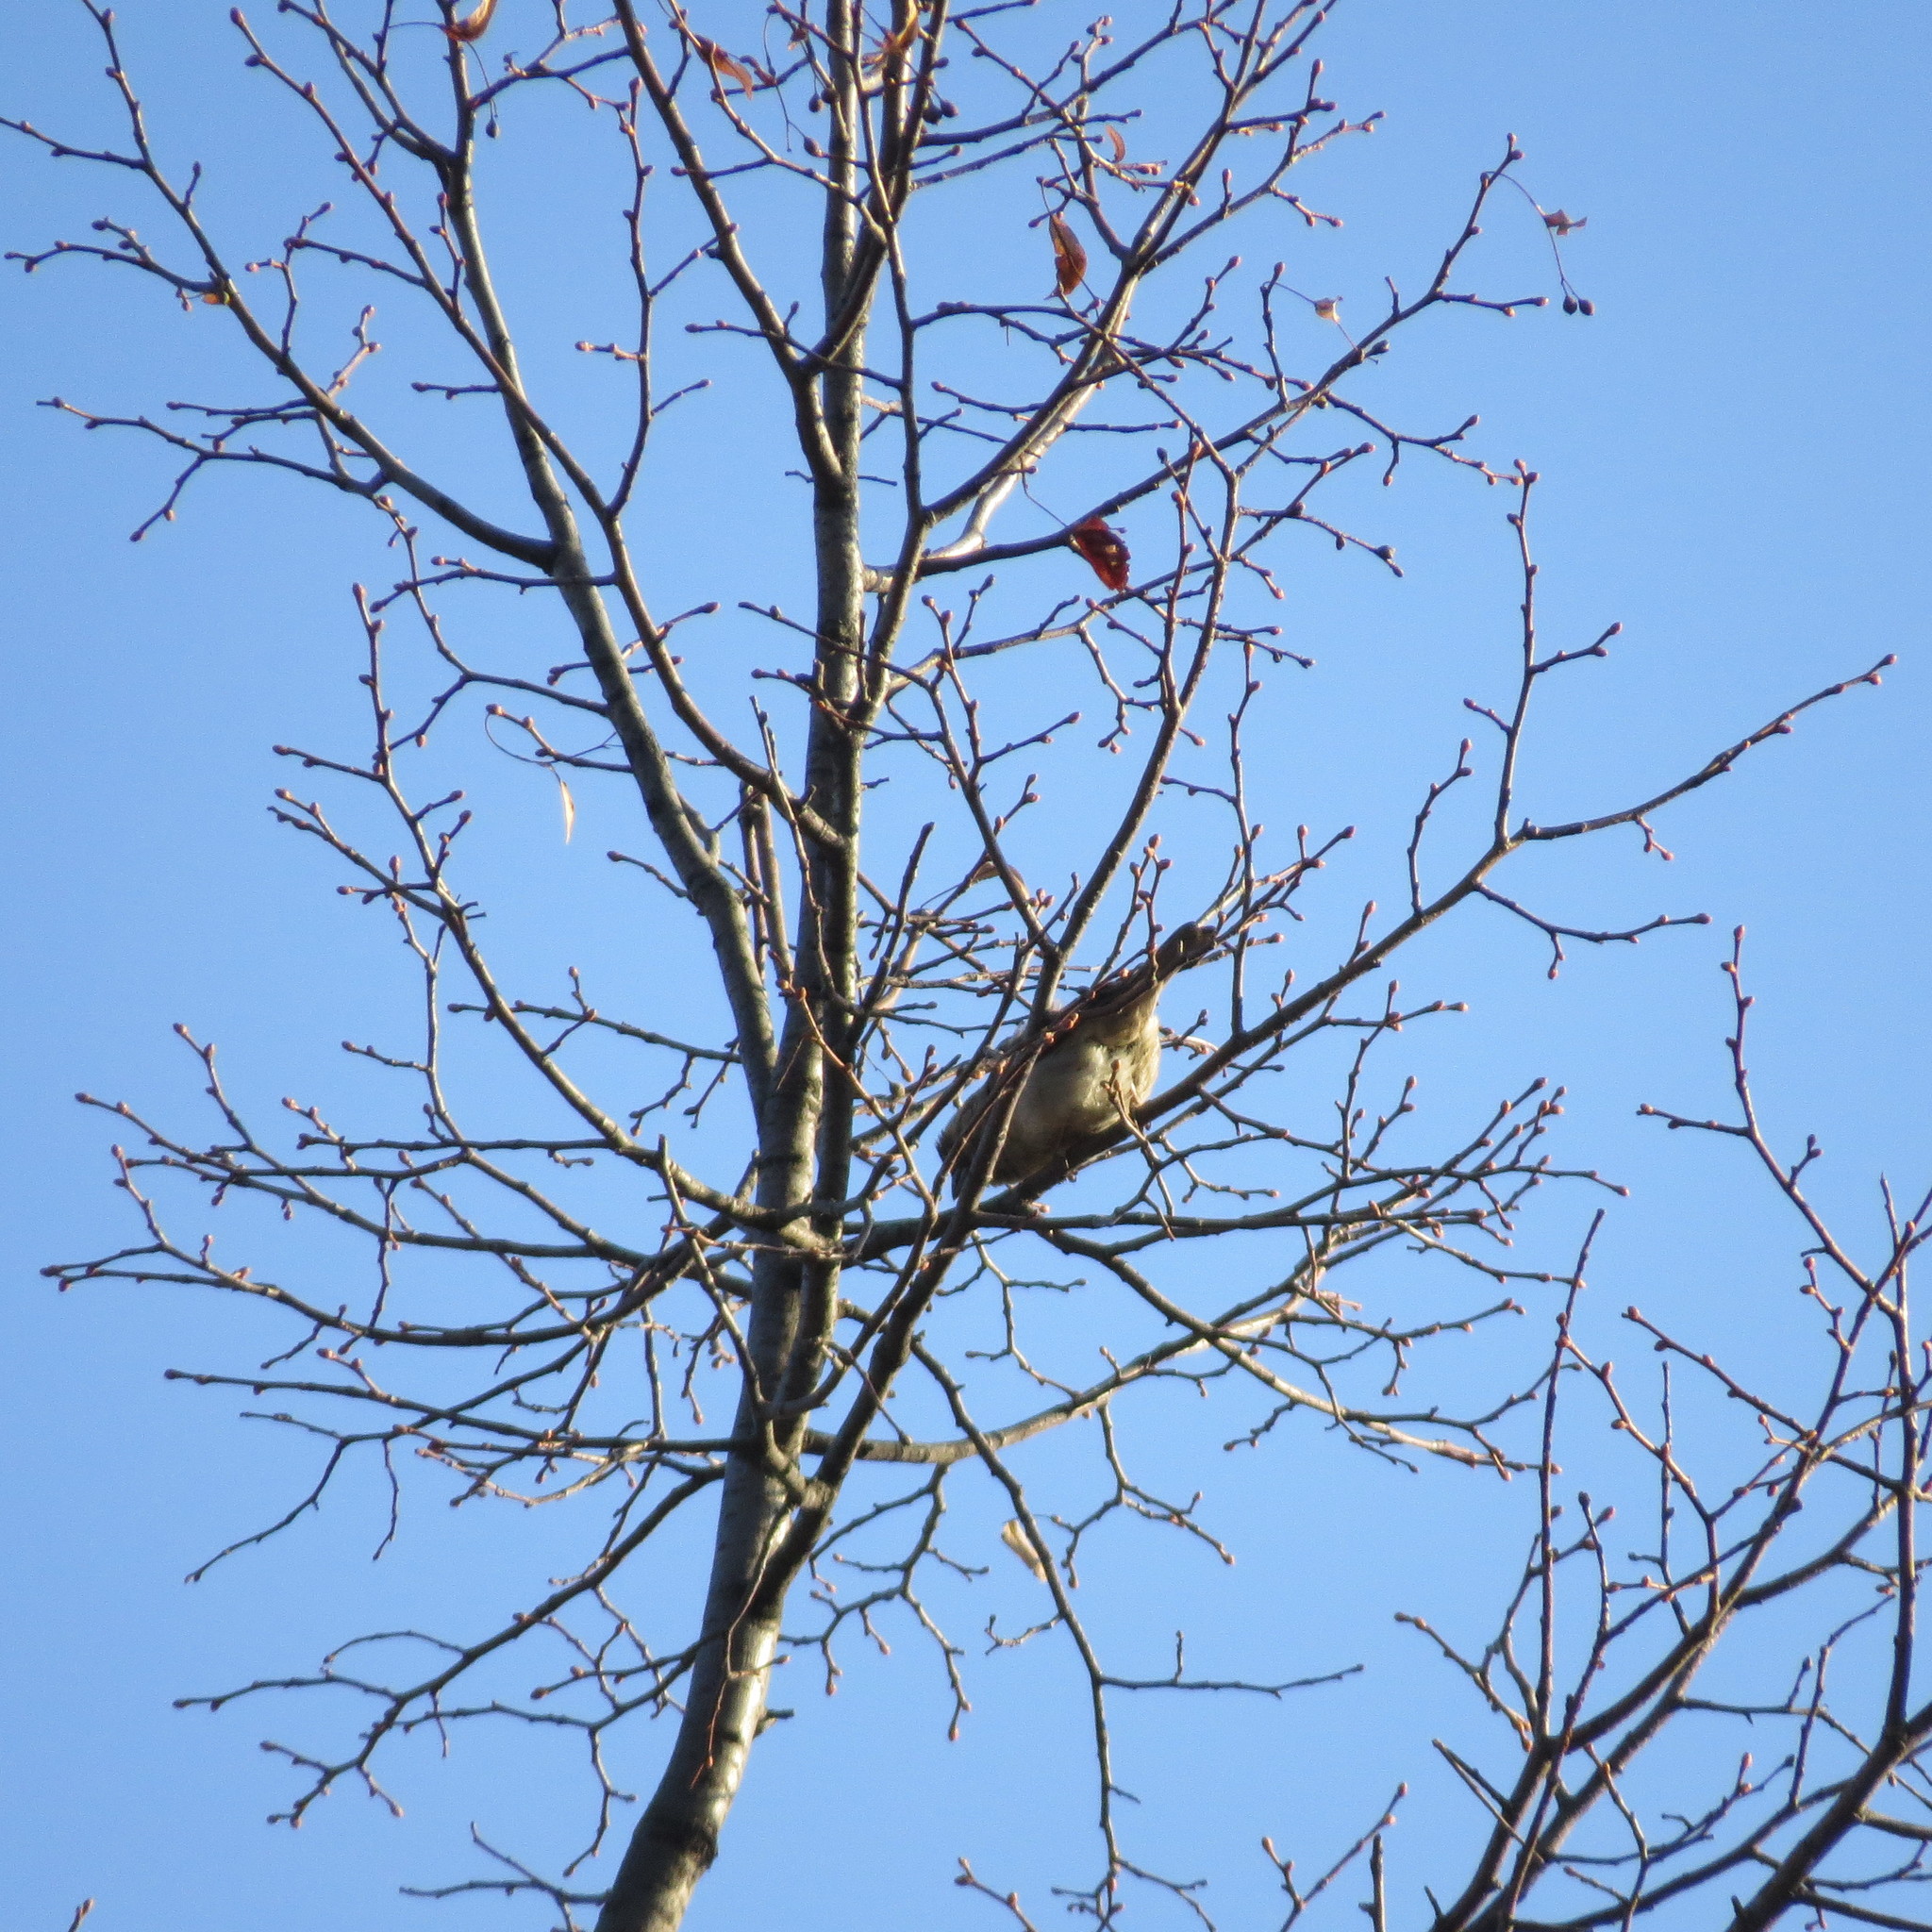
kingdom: Animalia
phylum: Chordata
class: Aves
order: Passeriformes
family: Passeridae
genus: Passer
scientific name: Passer domesticus
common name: House sparrow
